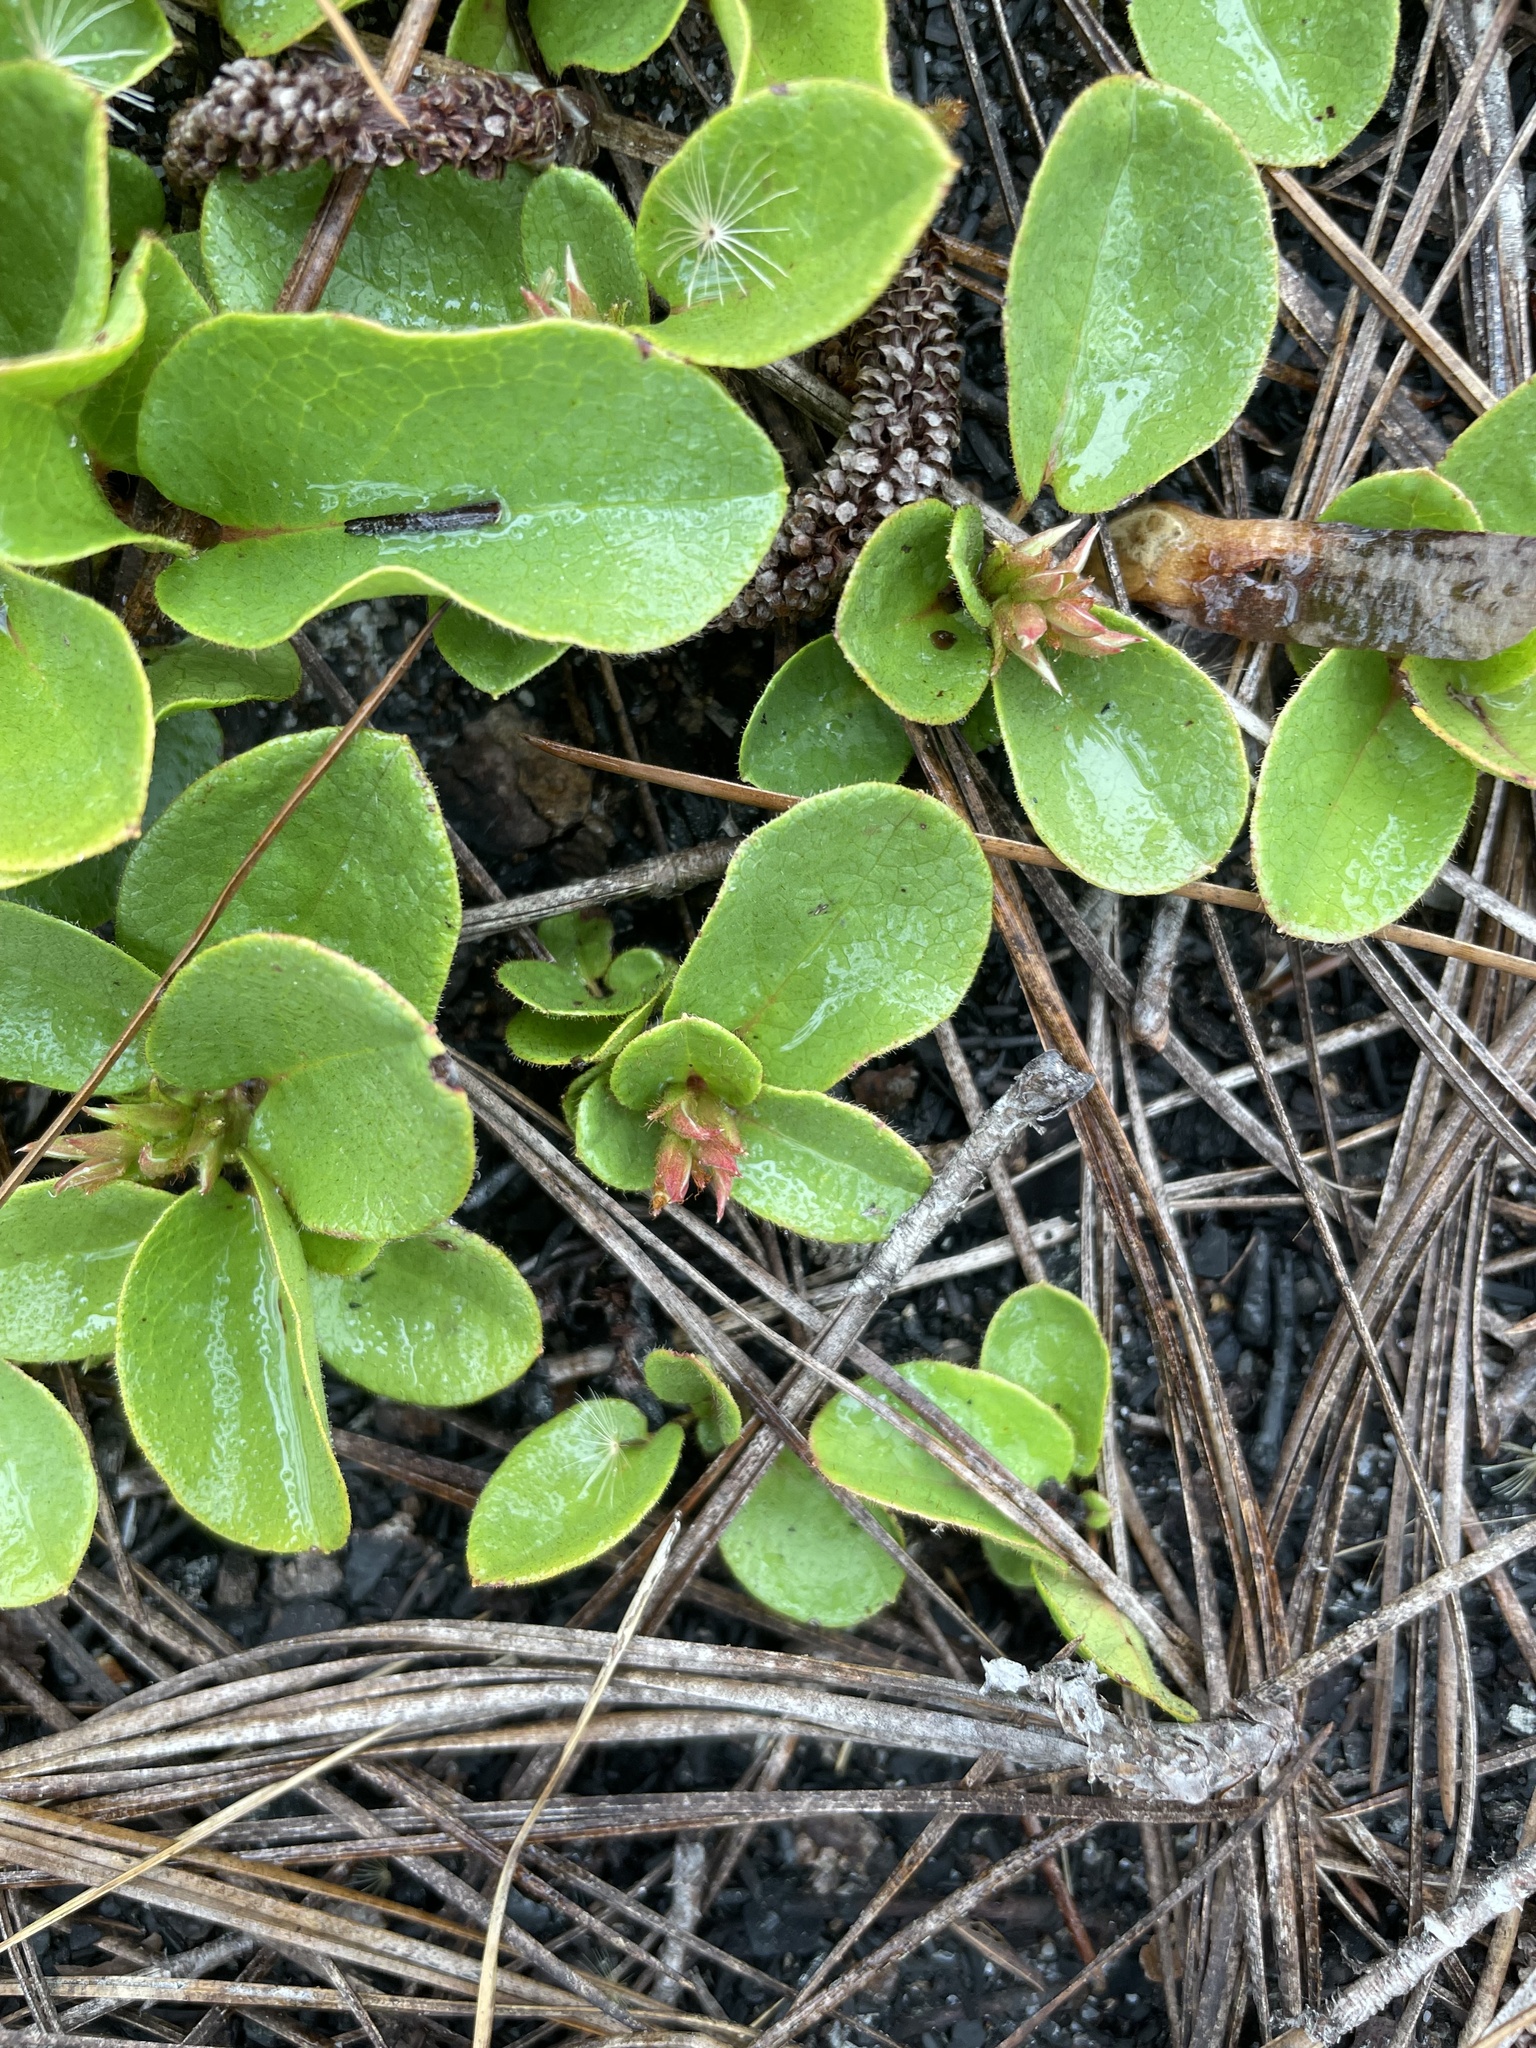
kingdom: Plantae
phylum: Tracheophyta
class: Magnoliopsida
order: Ericales
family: Ericaceae
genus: Epigaea
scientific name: Epigaea repens
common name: Gravelroot
